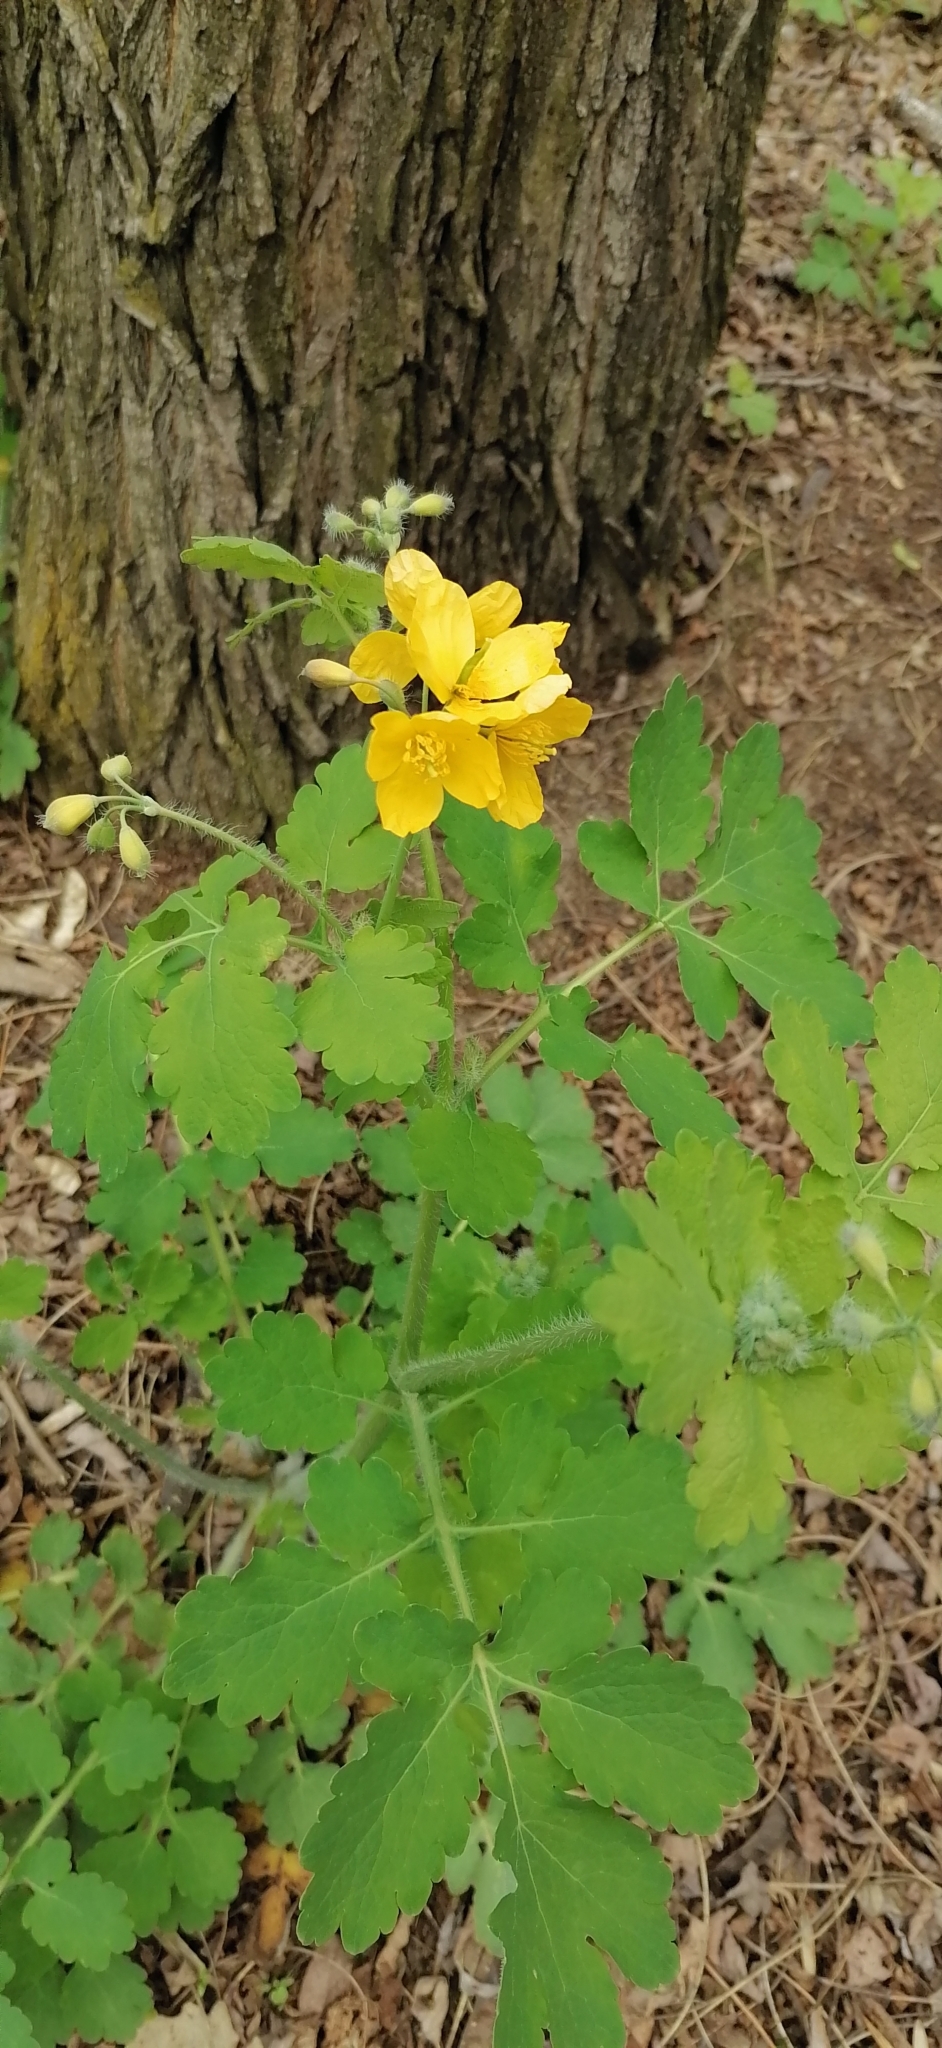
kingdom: Plantae
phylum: Tracheophyta
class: Magnoliopsida
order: Ranunculales
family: Papaveraceae
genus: Chelidonium
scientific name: Chelidonium majus
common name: Greater celandine
